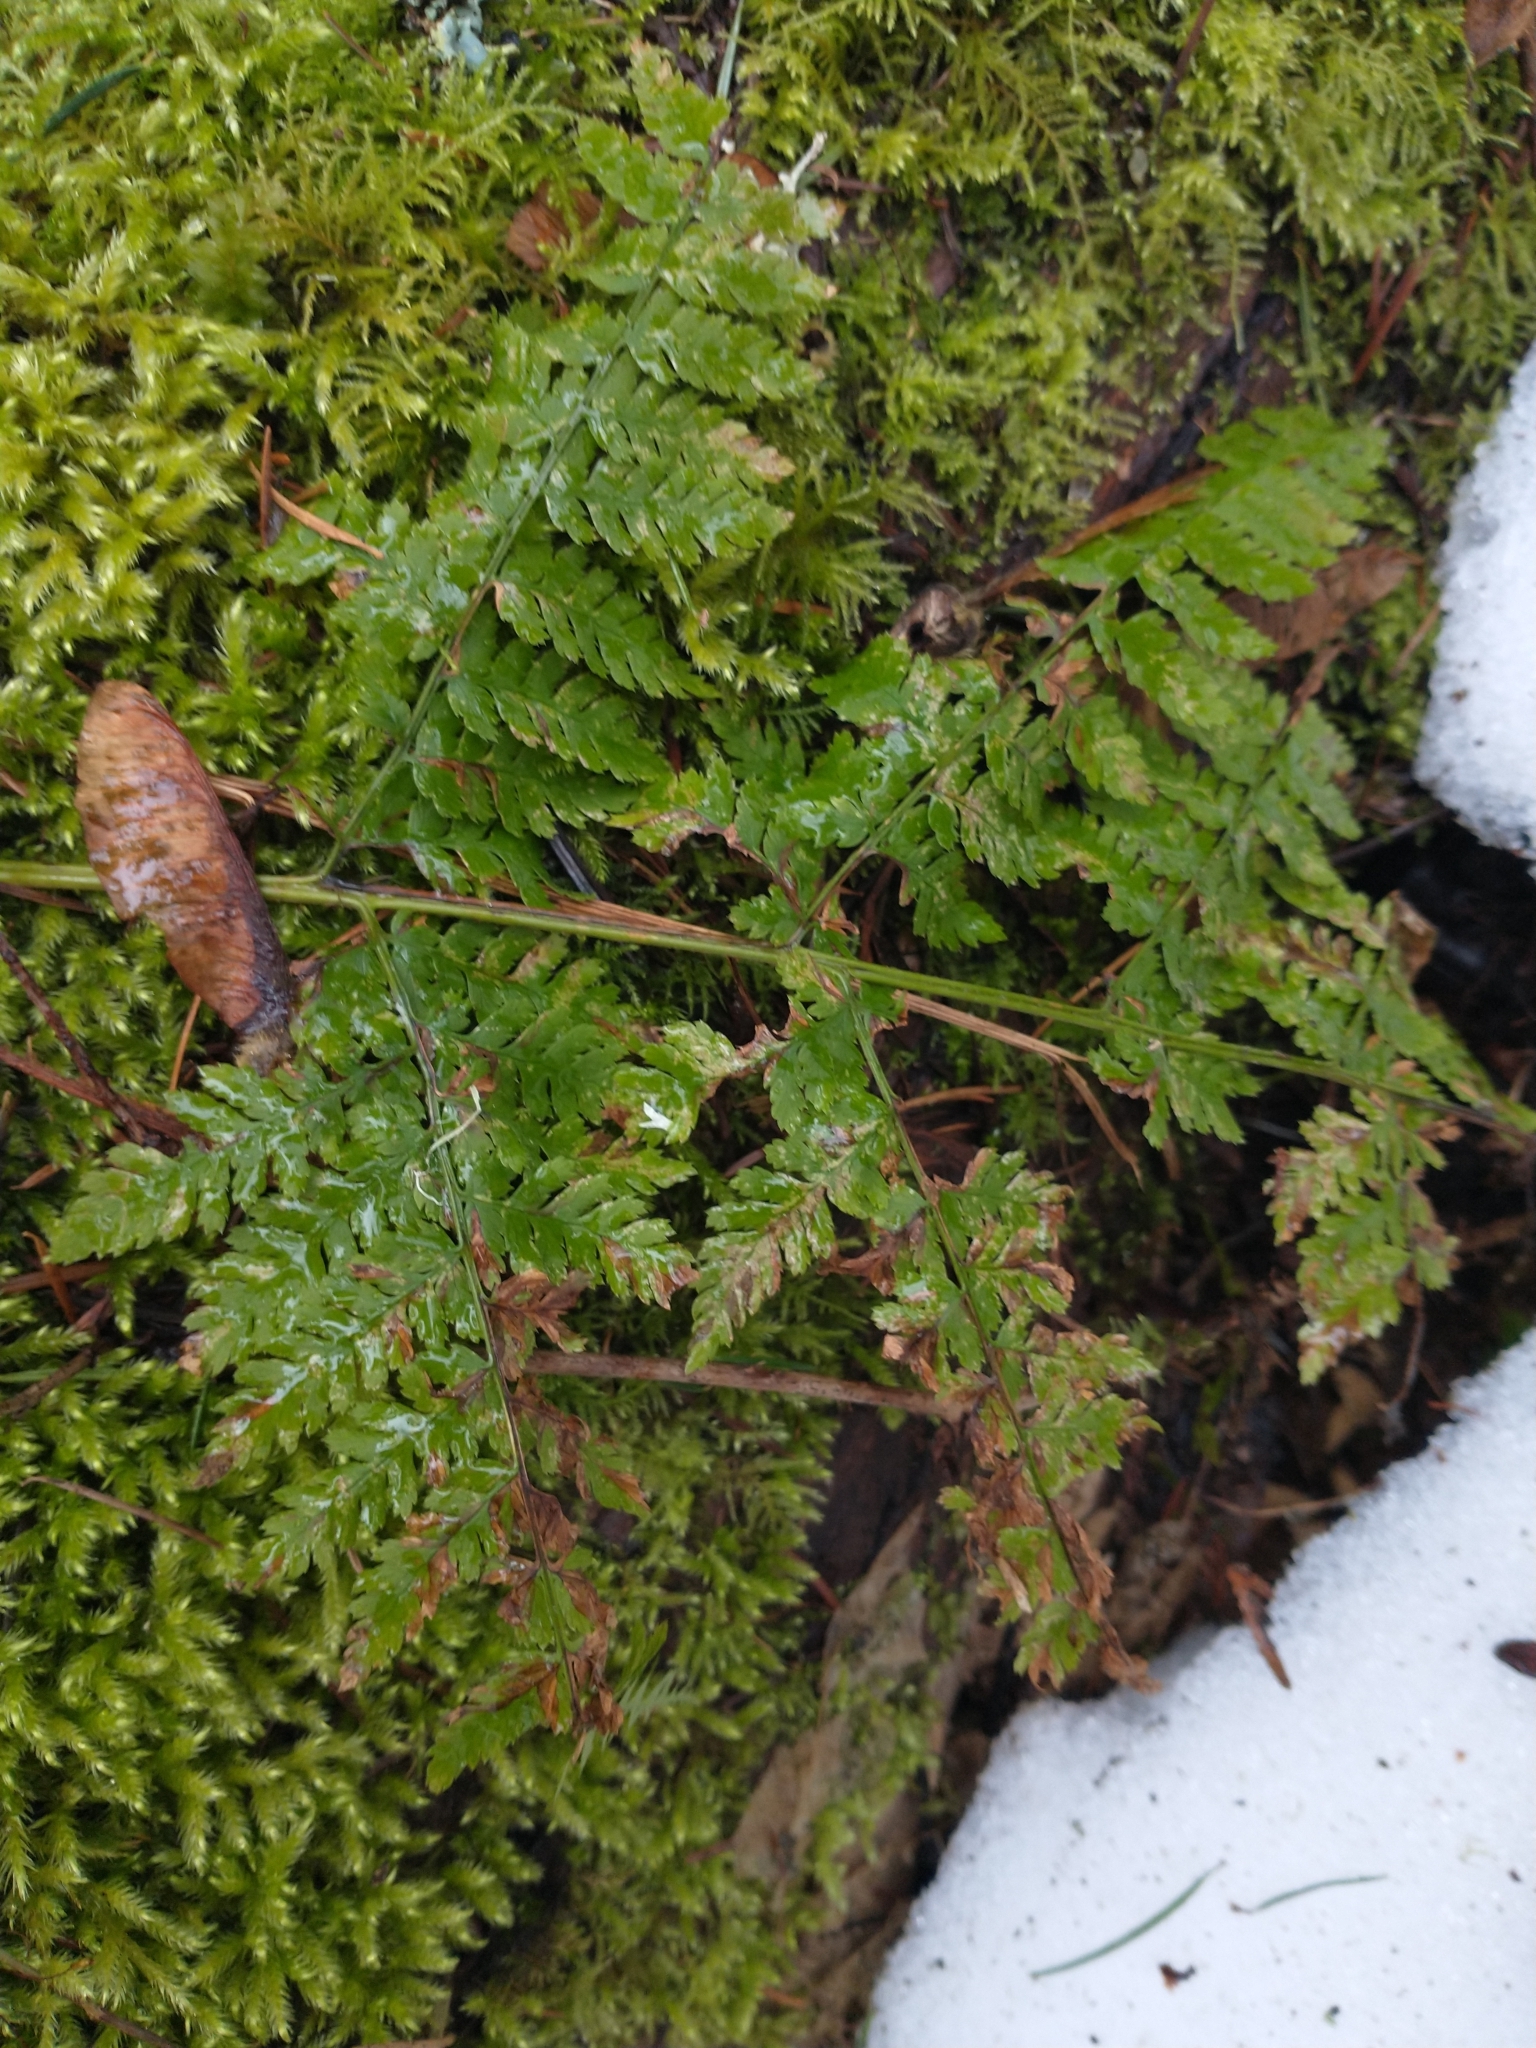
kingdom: Plantae
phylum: Tracheophyta
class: Polypodiopsida
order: Polypodiales
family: Dryopteridaceae
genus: Dryopteris
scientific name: Dryopteris expansa
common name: Northern buckler fern
